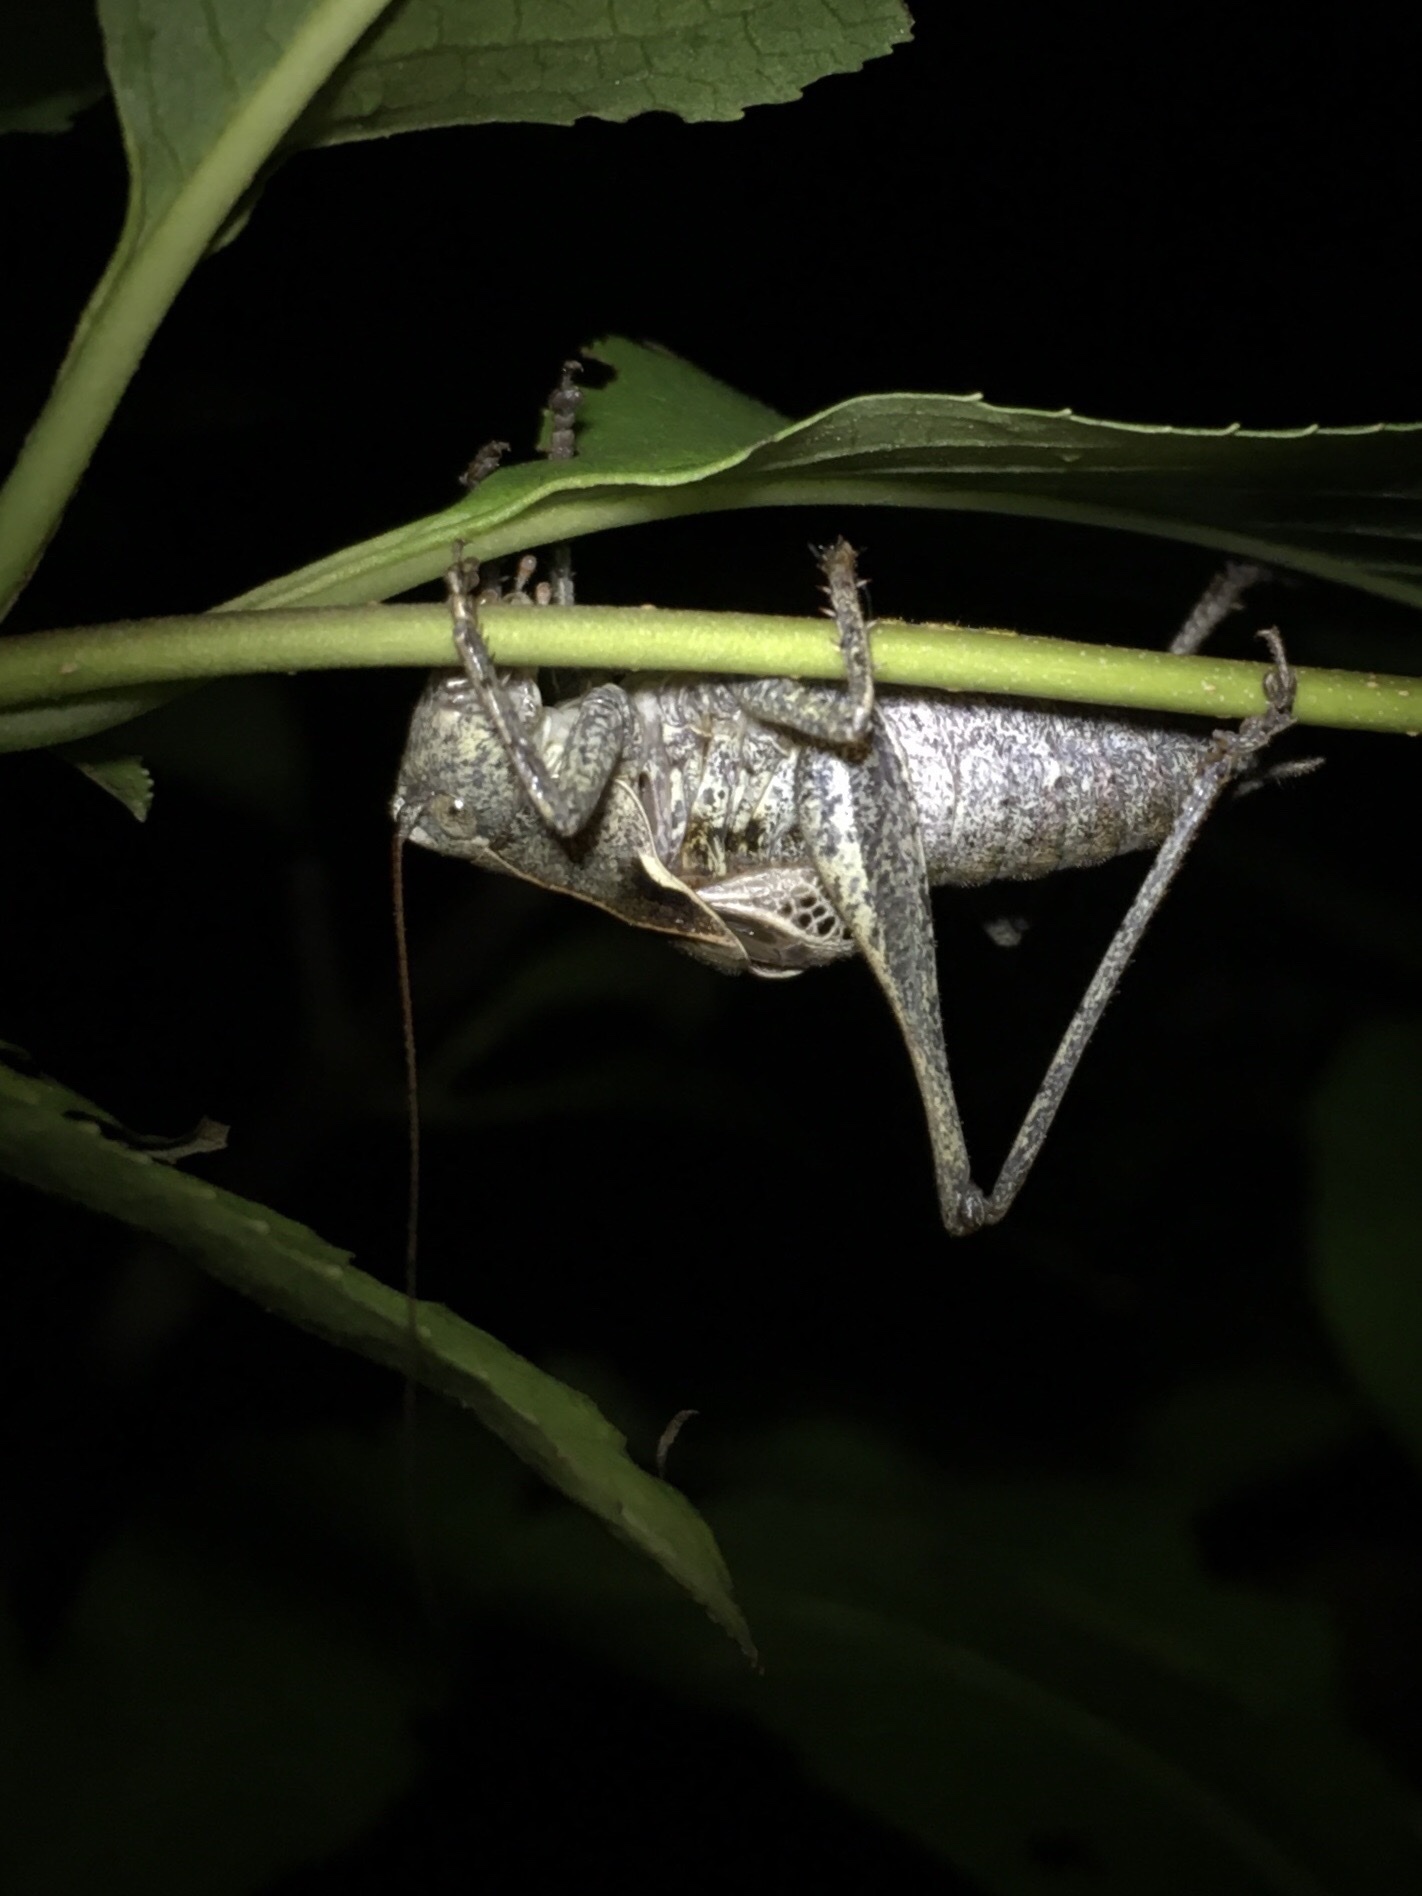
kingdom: Animalia
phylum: Arthropoda
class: Insecta
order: Orthoptera
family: Tettigoniidae
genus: Atlanticus
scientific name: Atlanticus davisi
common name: Davis's shield-bearer
